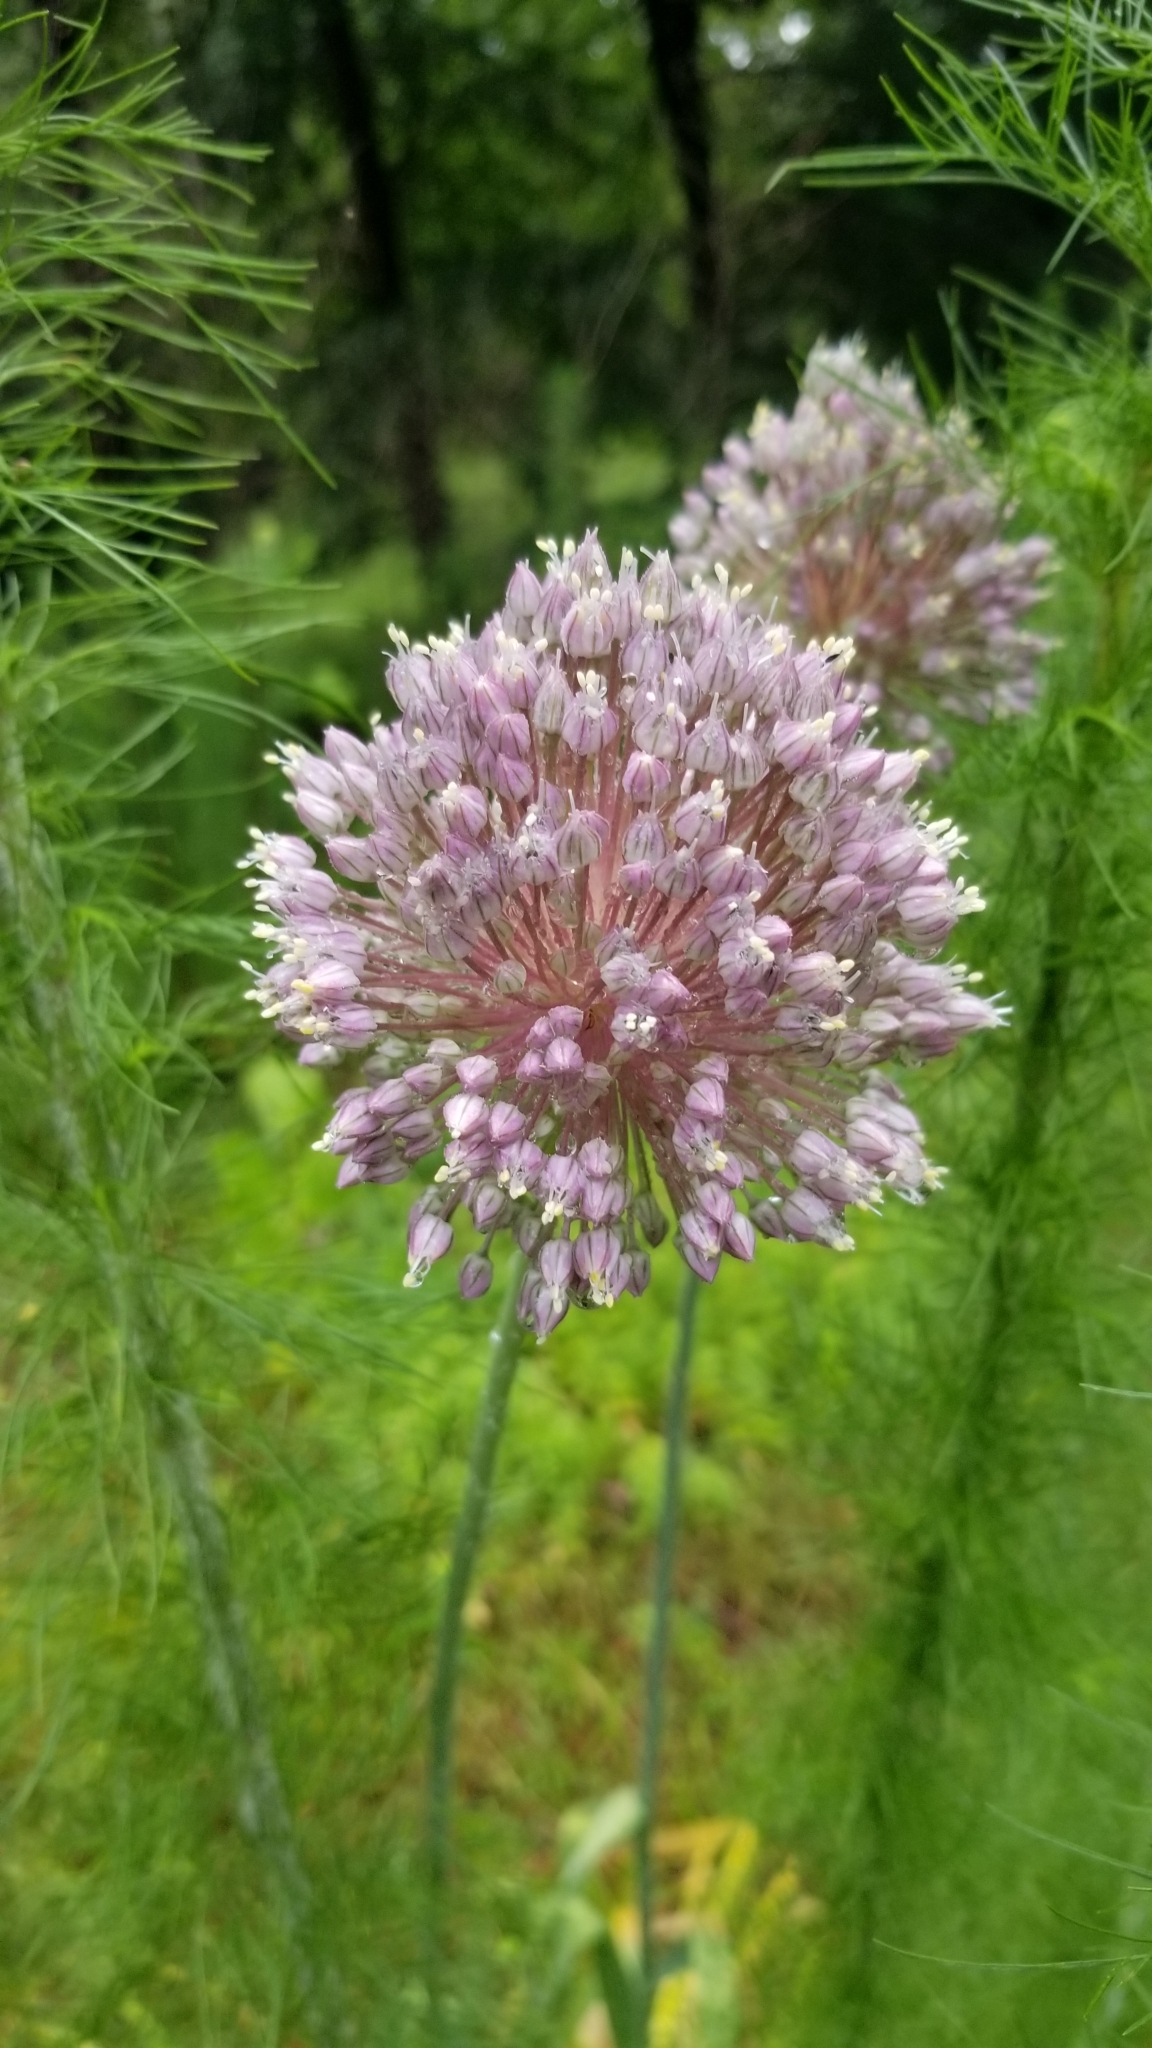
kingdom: Plantae
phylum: Tracheophyta
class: Liliopsida
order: Asparagales
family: Amaryllidaceae
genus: Allium
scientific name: Allium ampeloprasum
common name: Wild leek
